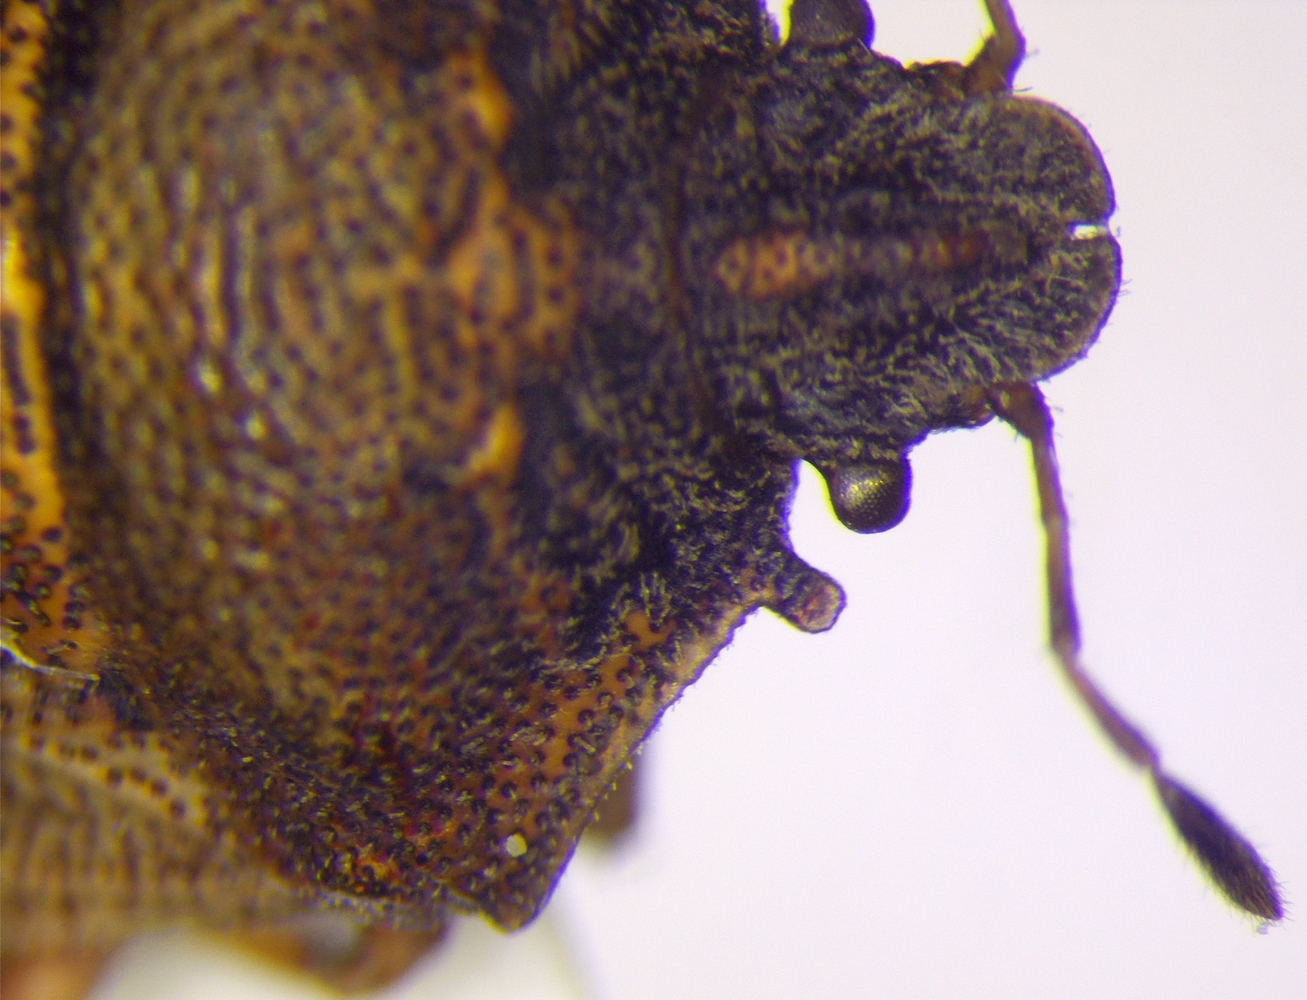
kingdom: Animalia
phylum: Arthropoda
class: Insecta
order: Hemiptera
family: Pentatomidae
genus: Podops
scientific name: Podops rectidens
